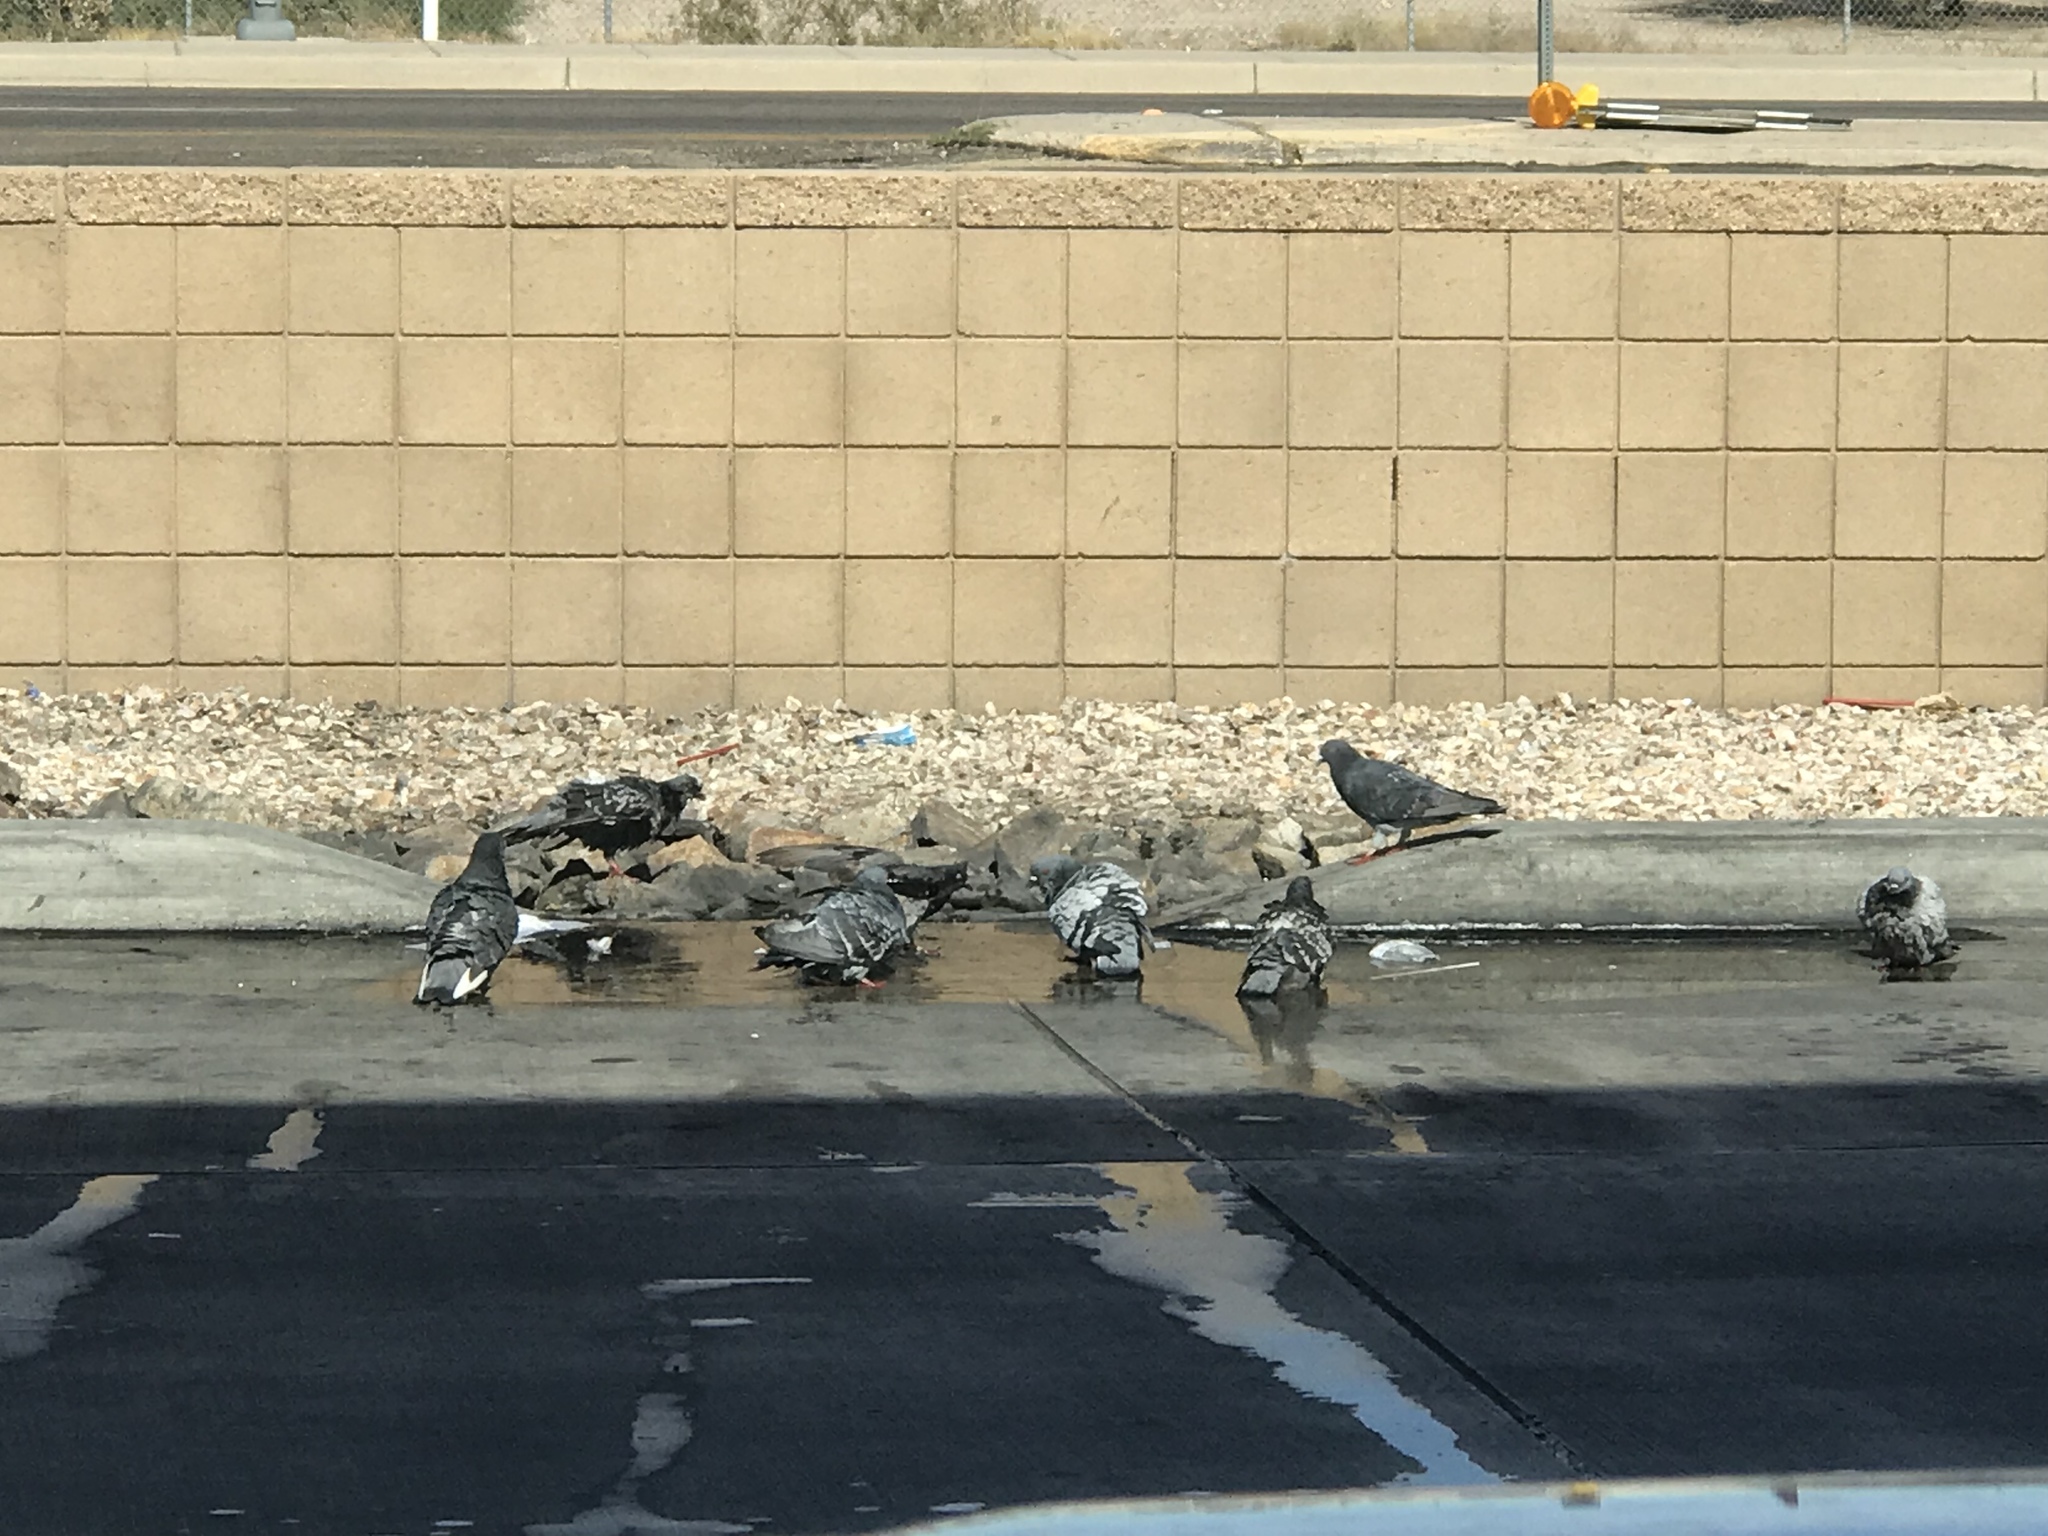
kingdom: Animalia
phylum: Chordata
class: Aves
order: Columbiformes
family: Columbidae
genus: Columba
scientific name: Columba livia
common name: Rock pigeon
